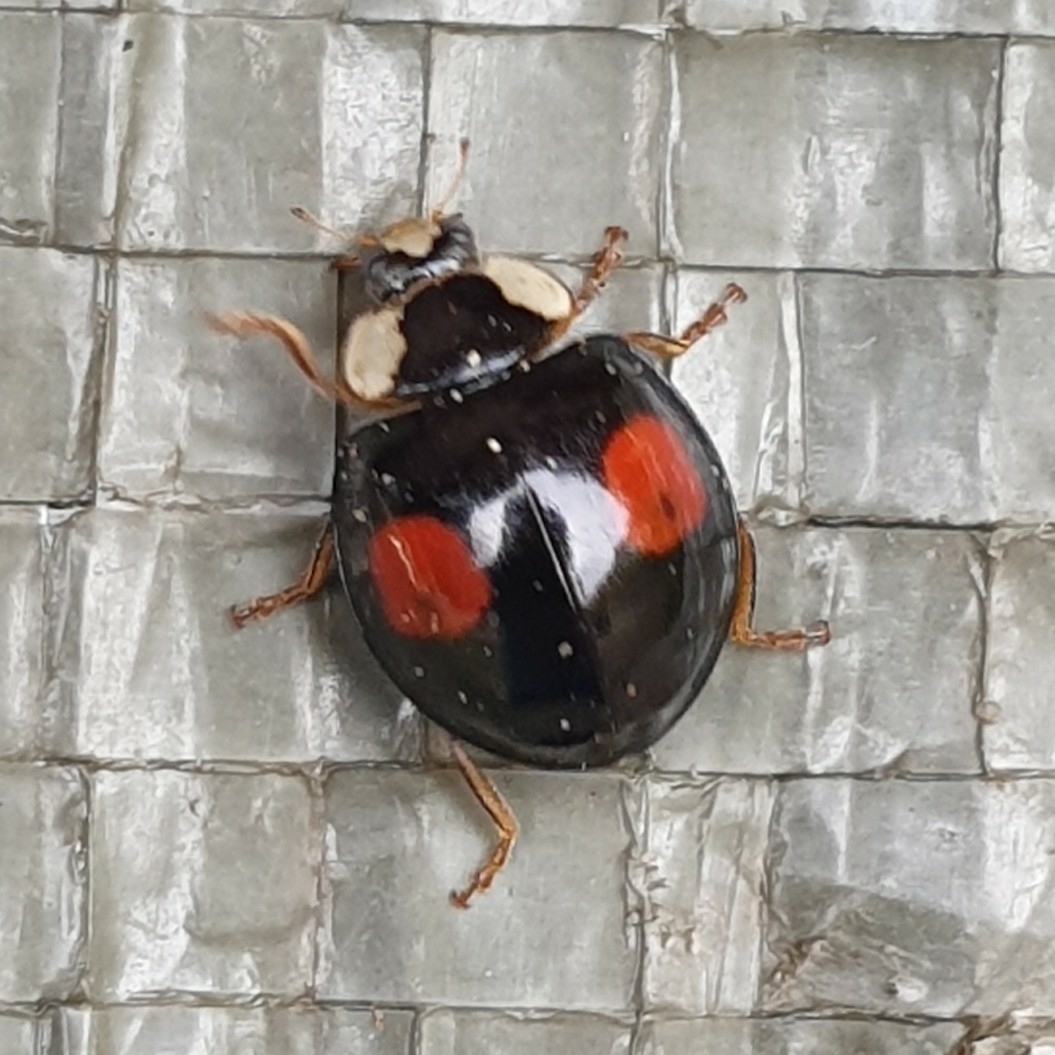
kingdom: Animalia
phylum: Arthropoda
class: Insecta
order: Coleoptera
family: Coccinellidae
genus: Harmonia
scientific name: Harmonia axyridis
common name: Harlequin ladybird
